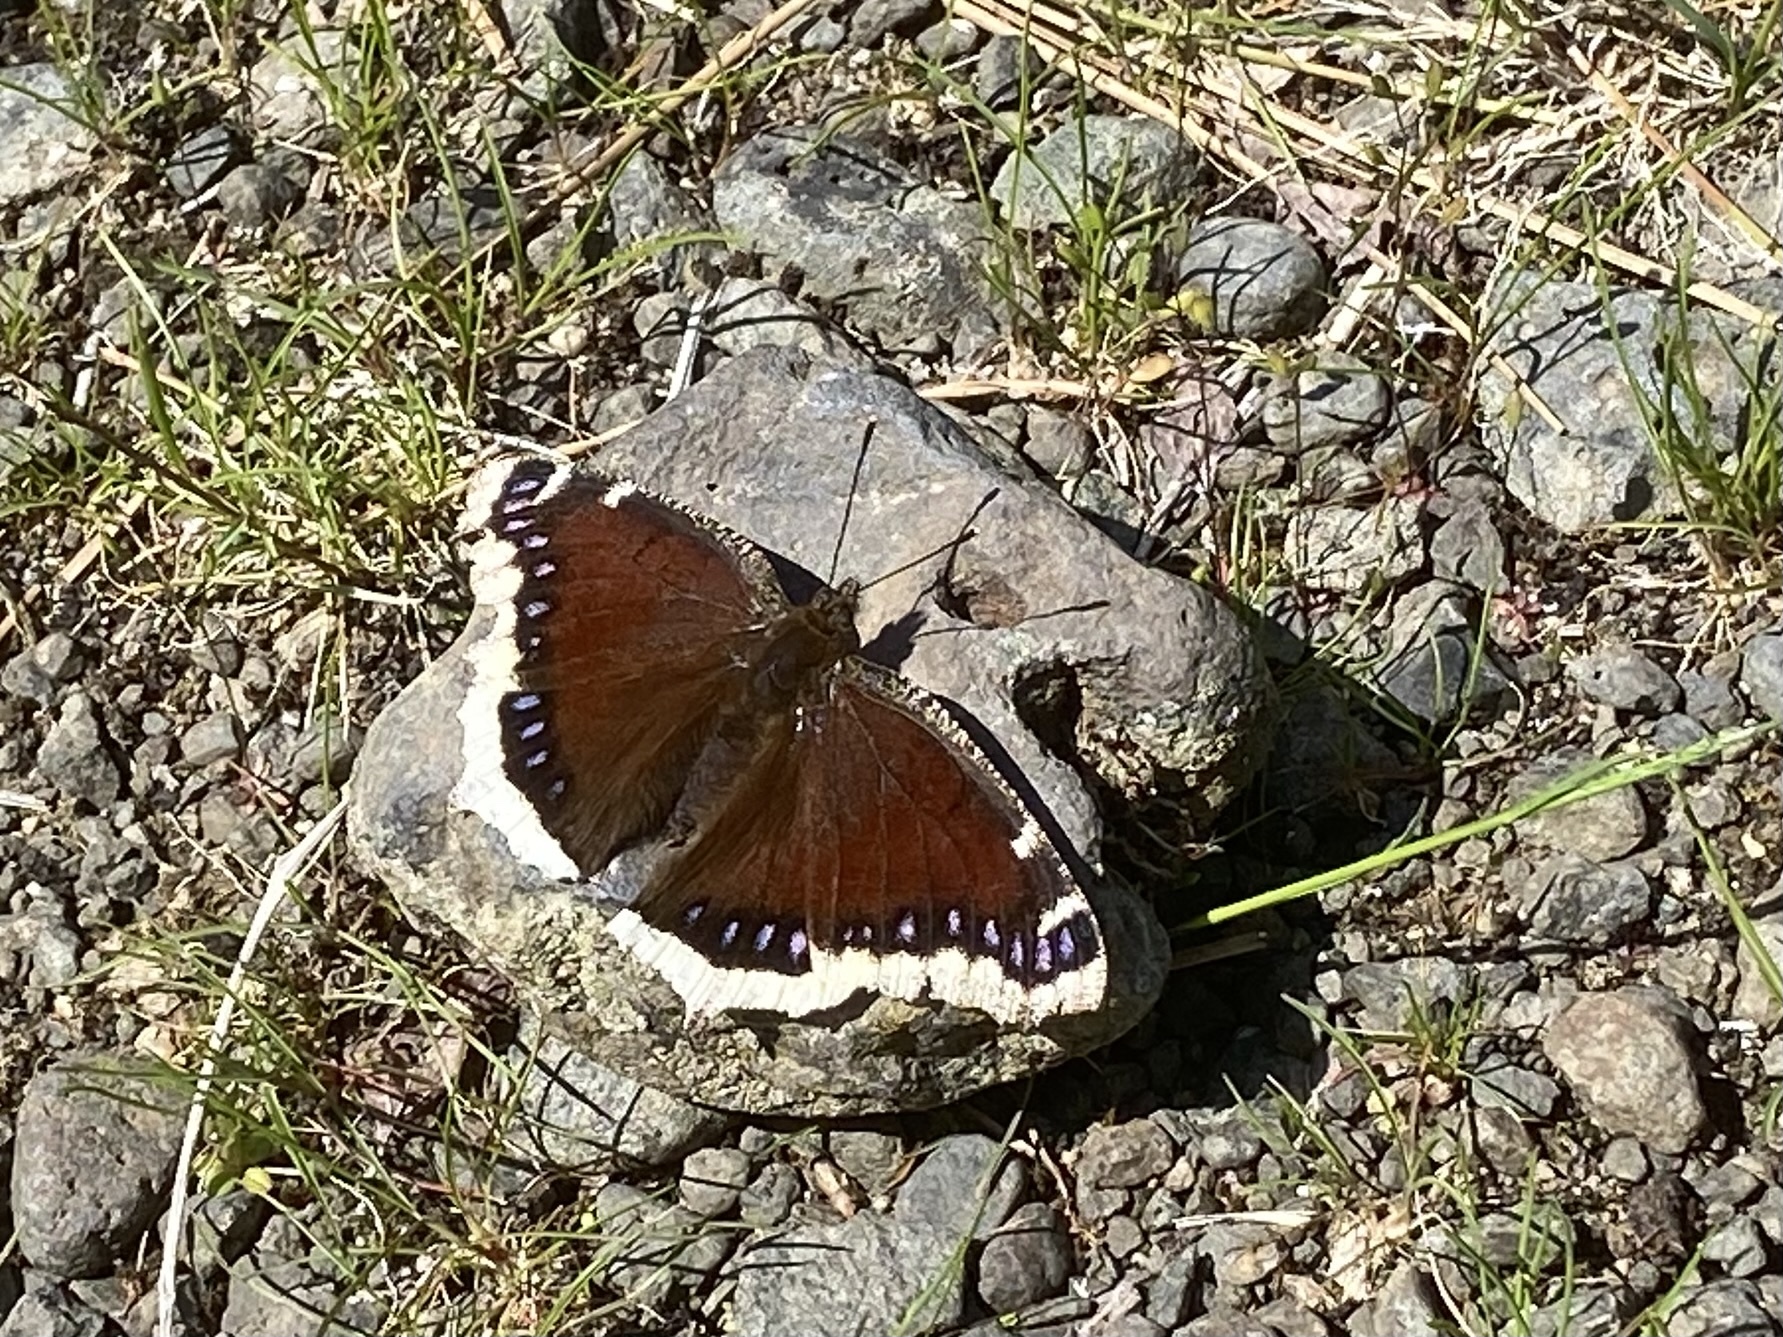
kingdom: Animalia
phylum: Arthropoda
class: Insecta
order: Lepidoptera
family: Nymphalidae
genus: Nymphalis
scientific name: Nymphalis antiopa
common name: Camberwell beauty
